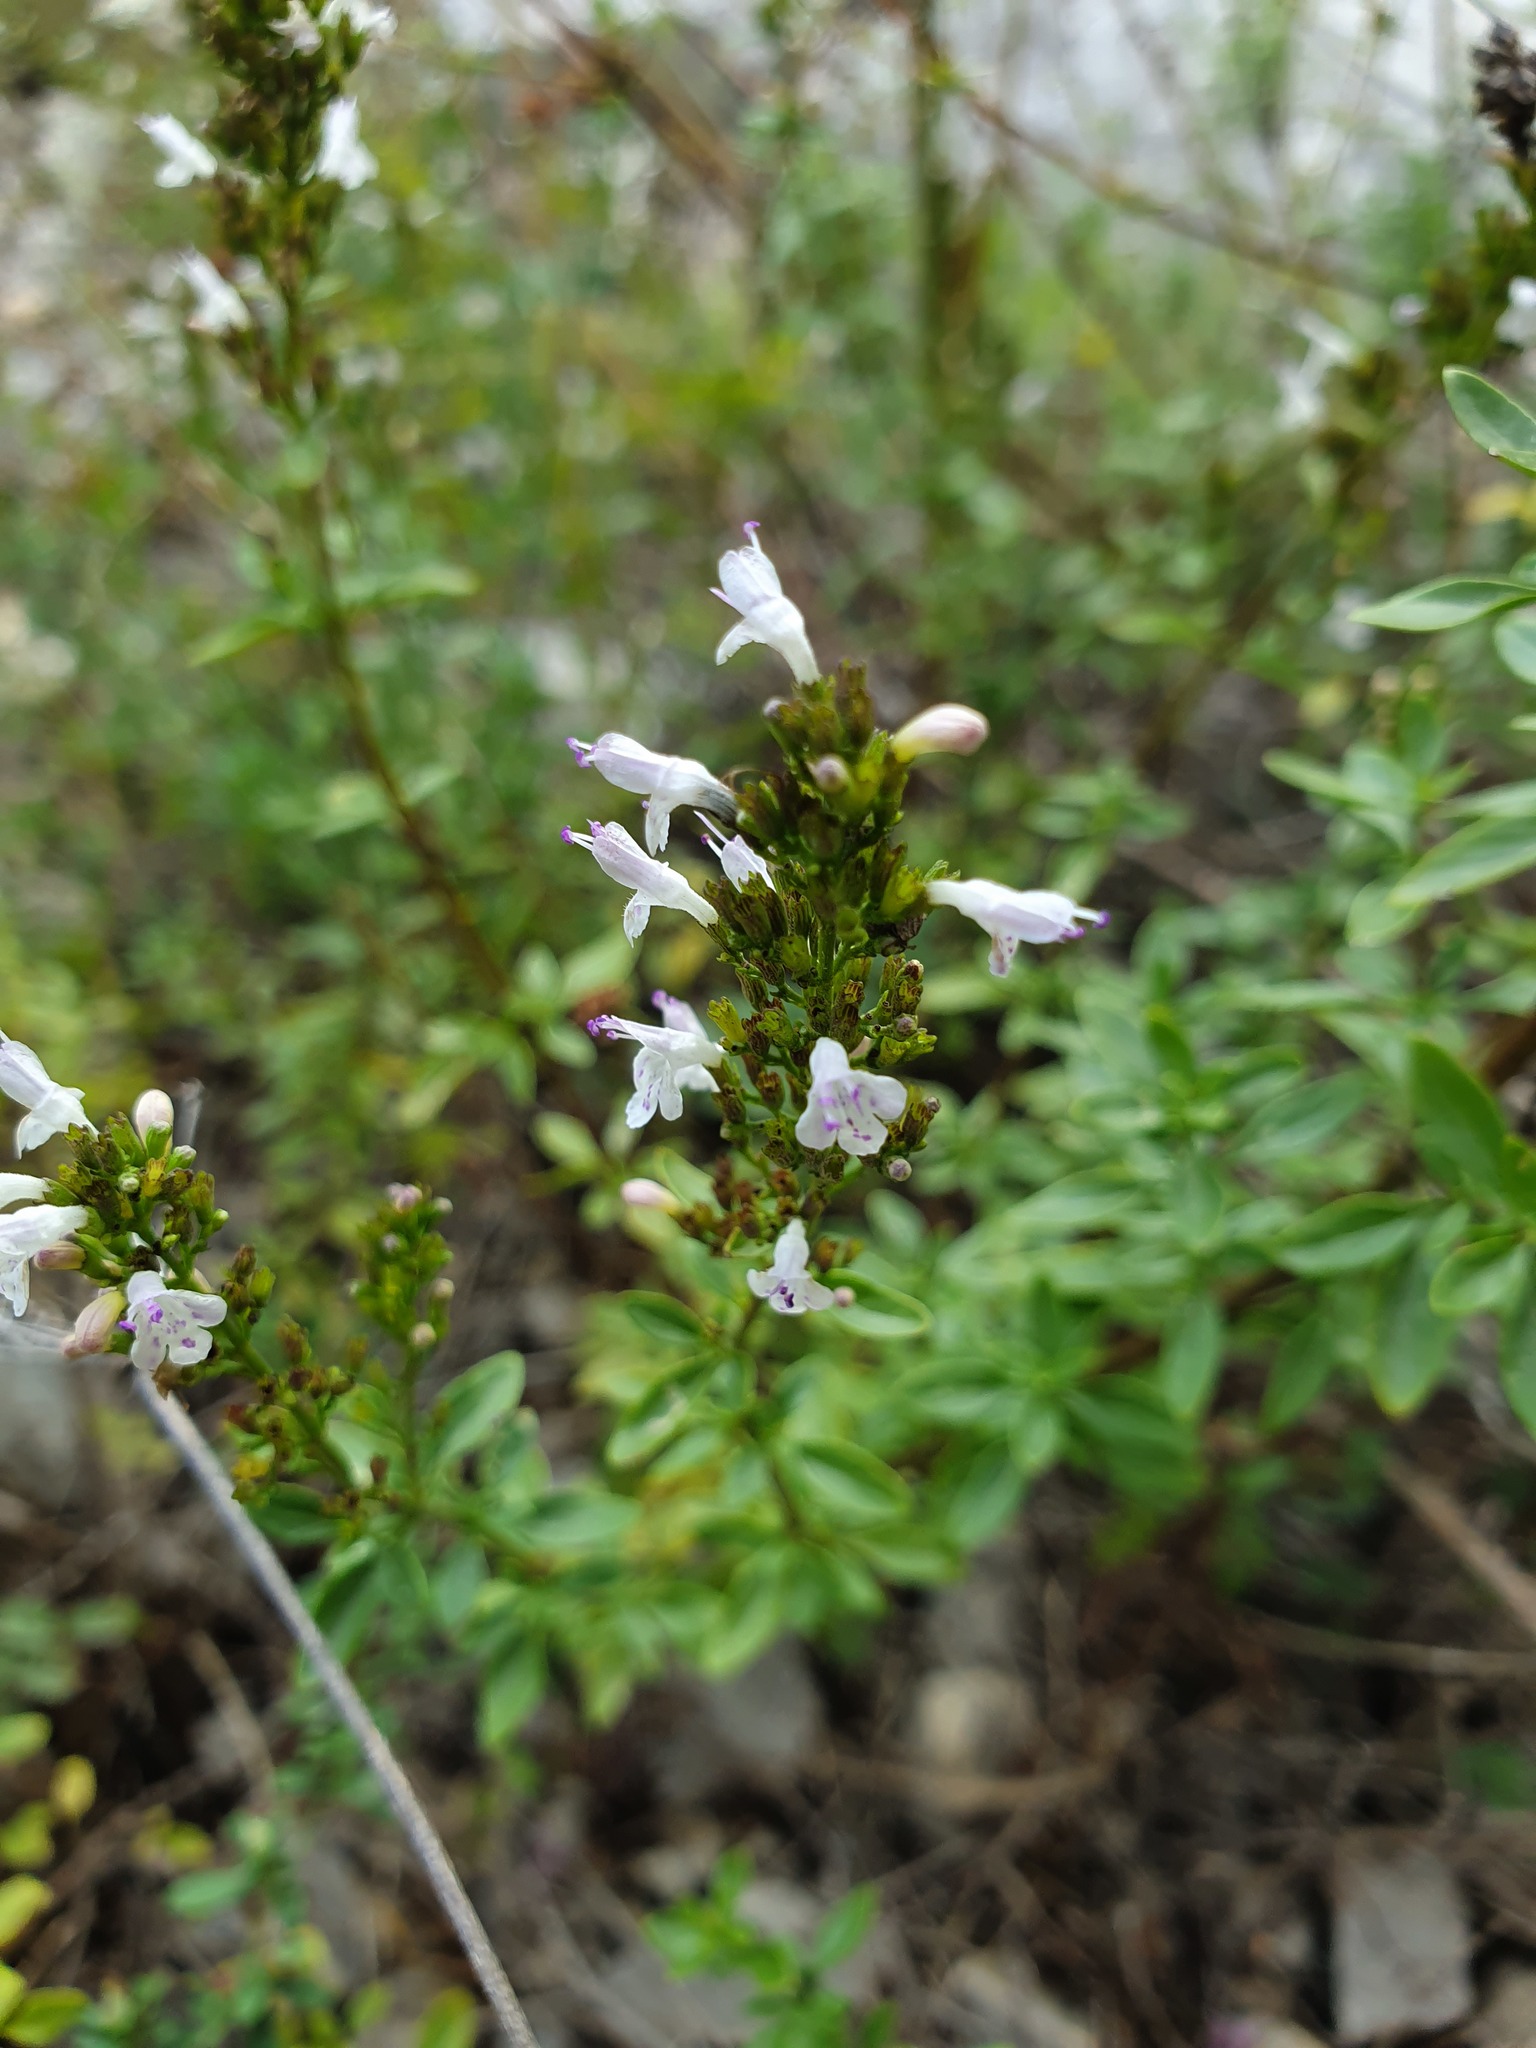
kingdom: Plantae
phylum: Tracheophyta
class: Magnoliopsida
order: Lamiales
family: Lamiaceae
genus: Clinopodium
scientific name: Clinopodium album
